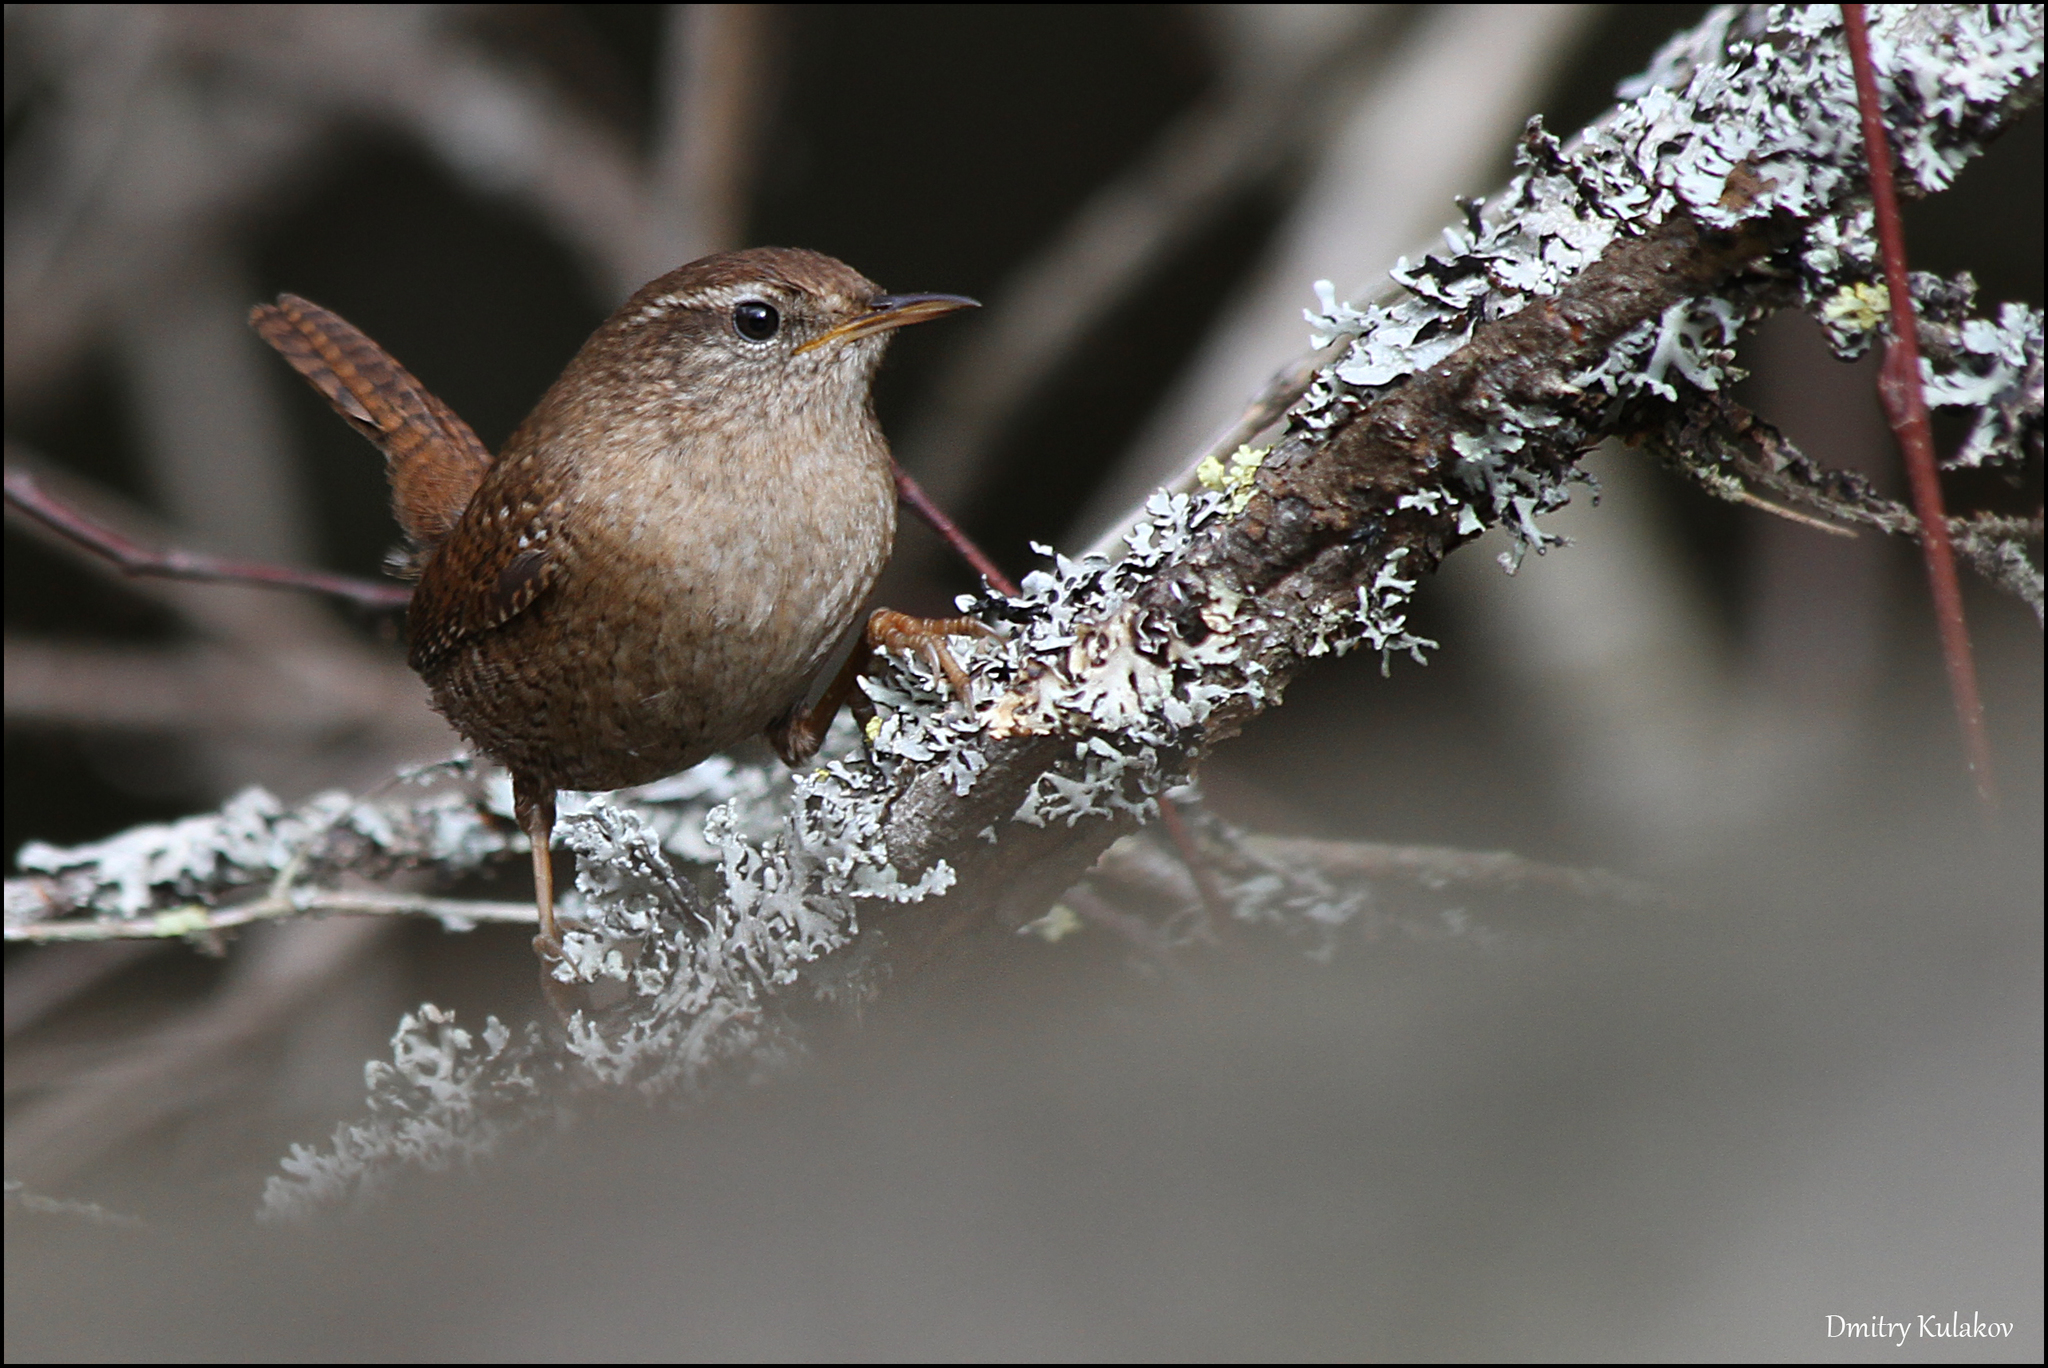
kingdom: Animalia
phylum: Chordata
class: Aves
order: Passeriformes
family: Troglodytidae
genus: Troglodytes
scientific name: Troglodytes troglodytes
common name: Eurasian wren
